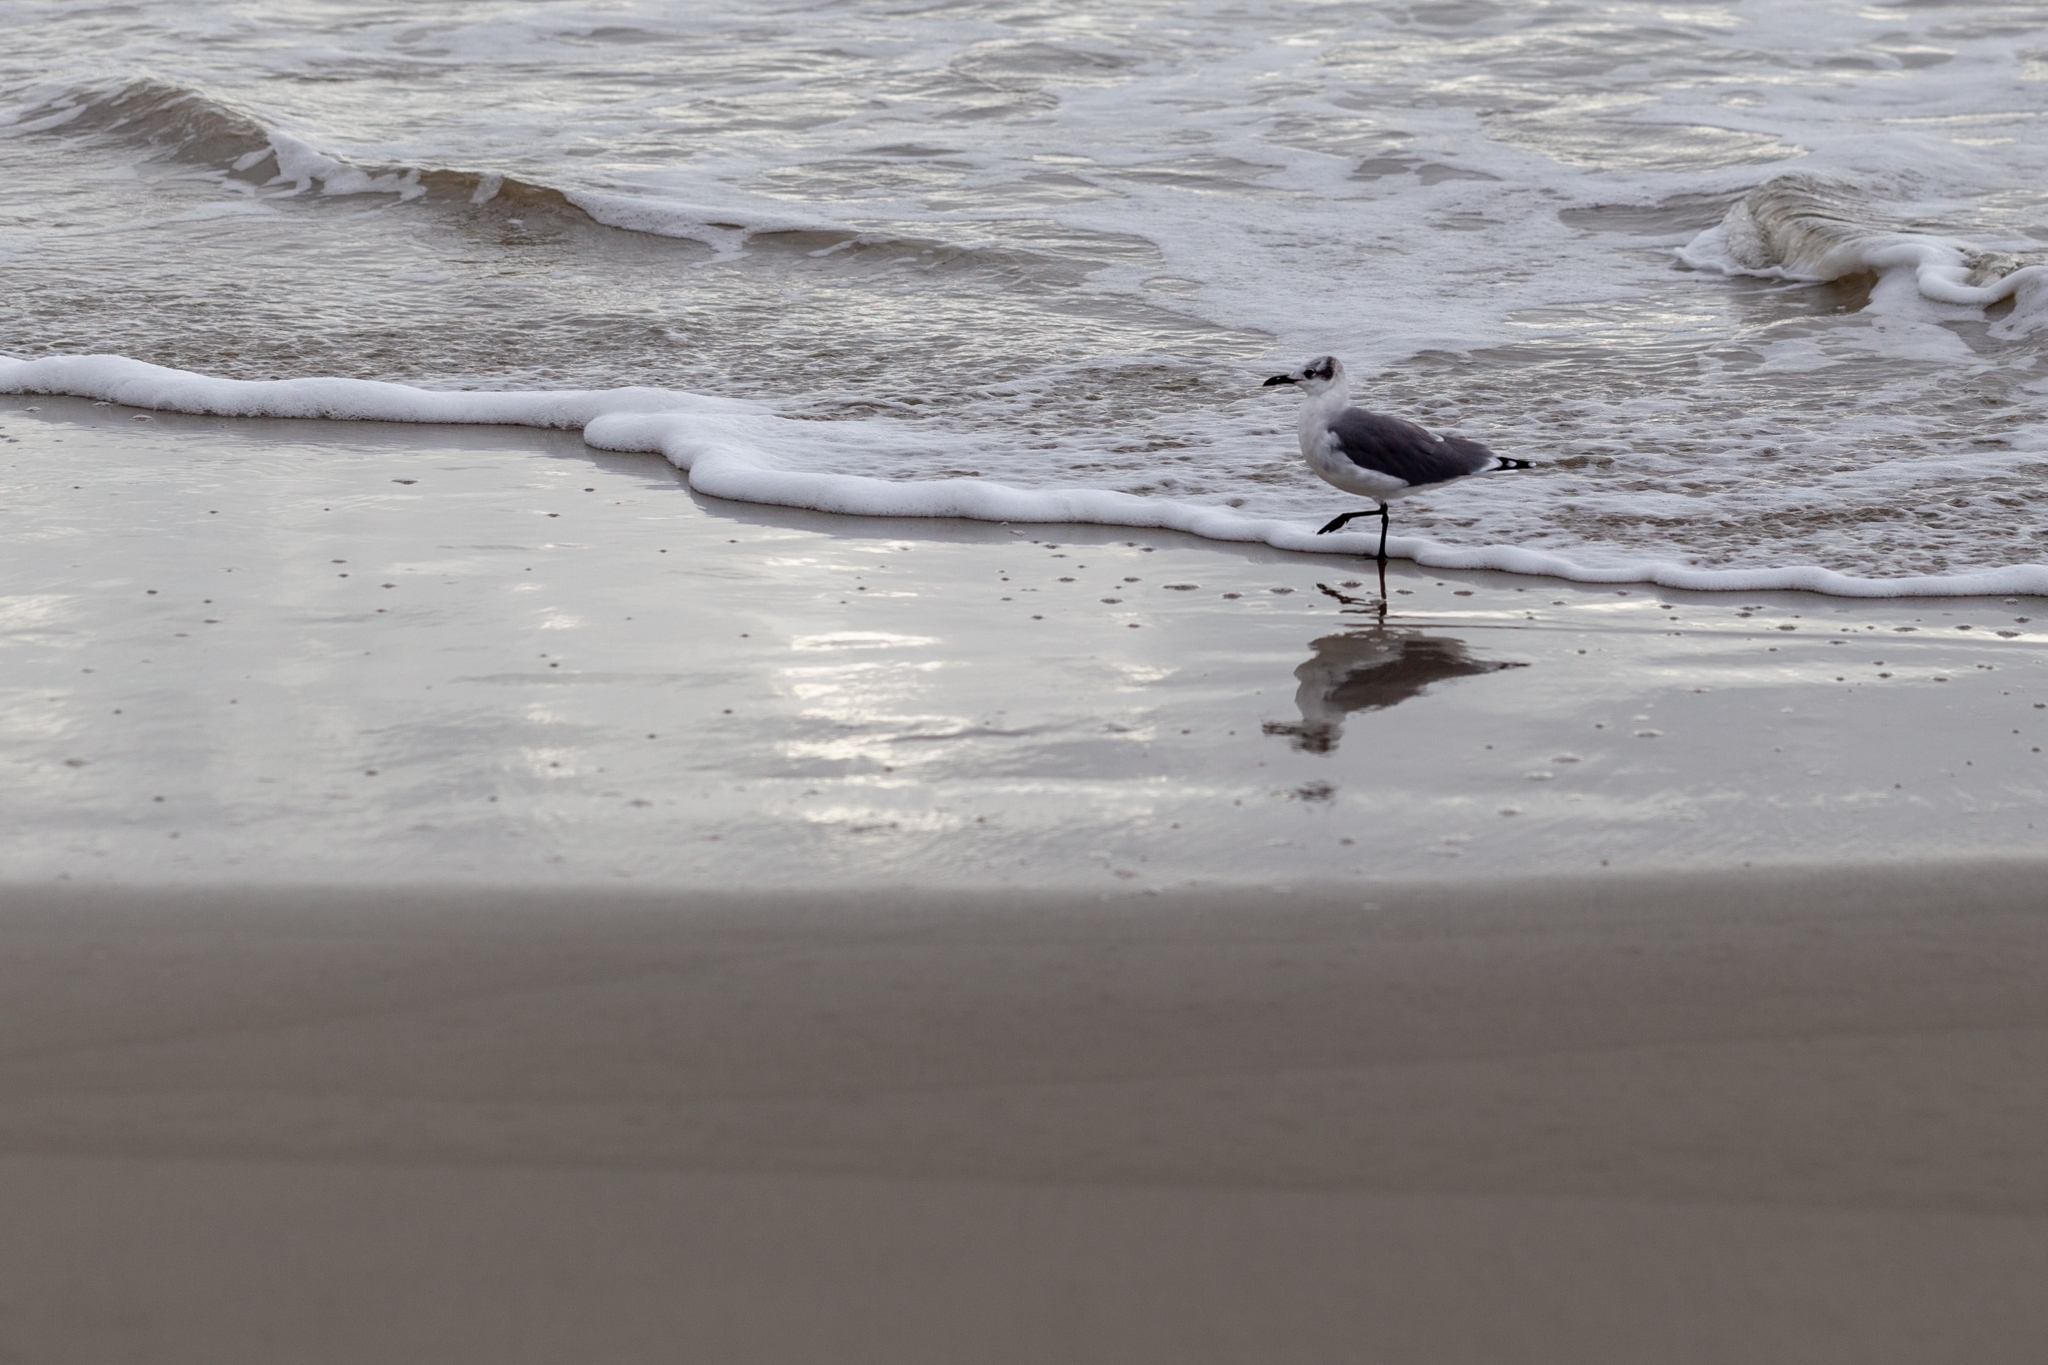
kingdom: Animalia
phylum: Chordata
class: Aves
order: Charadriiformes
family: Laridae
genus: Leucophaeus
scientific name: Leucophaeus atricilla
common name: Laughing gull
